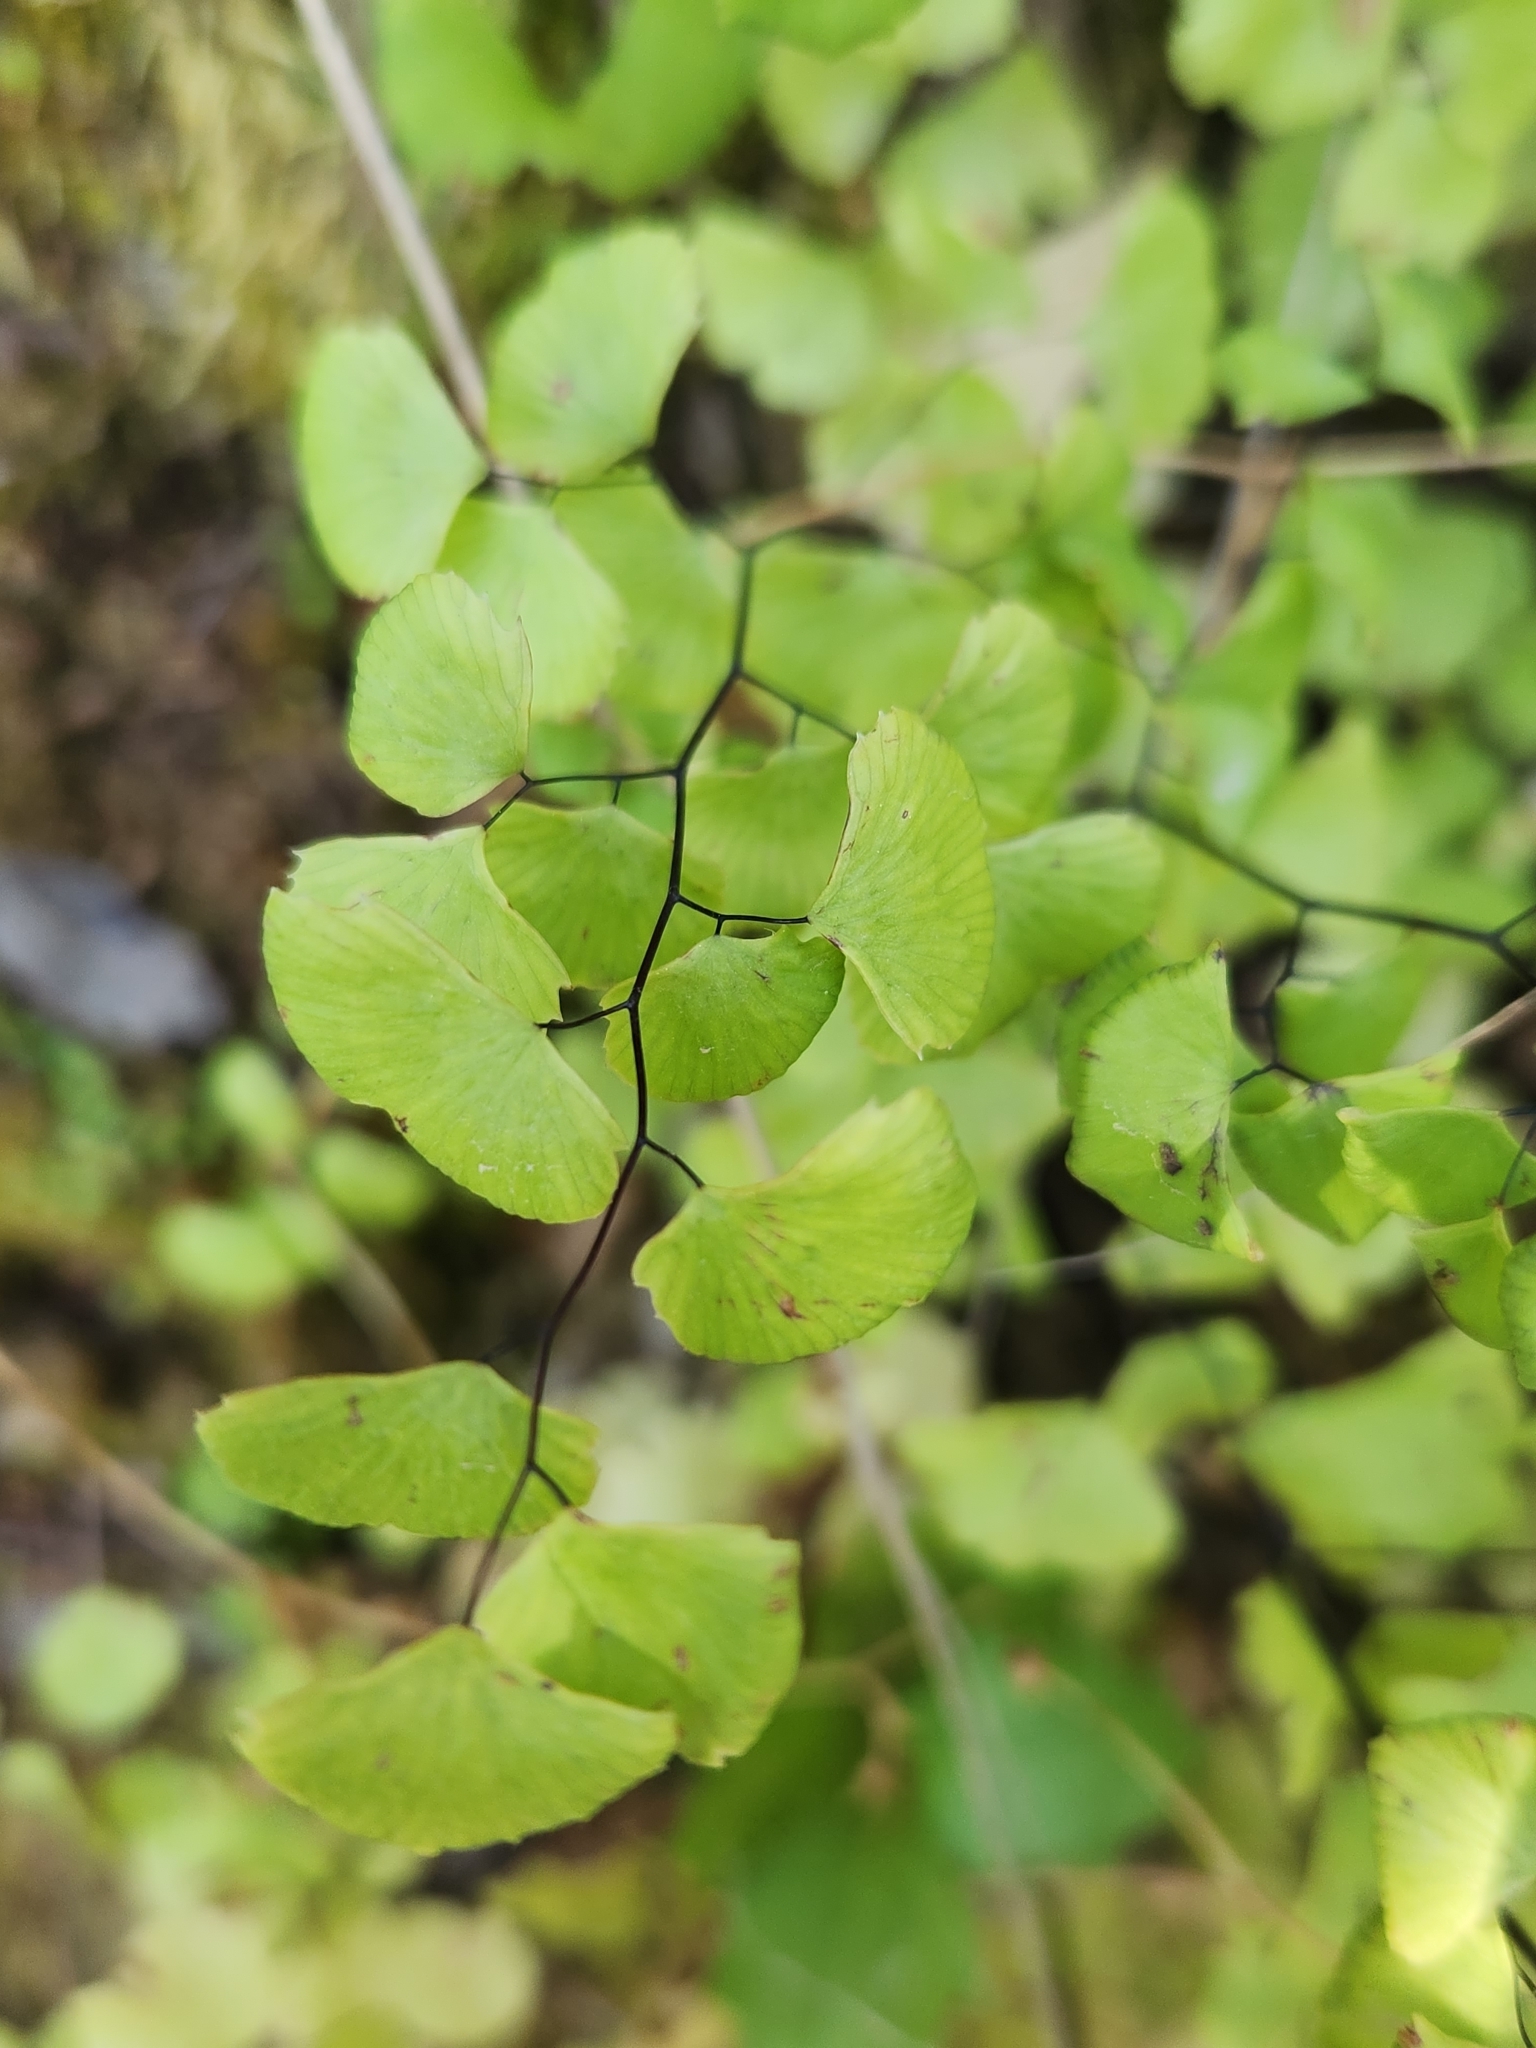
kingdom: Plantae
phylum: Tracheophyta
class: Polypodiopsida
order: Polypodiales
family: Pteridaceae
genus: Adiantum
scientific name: Adiantum jordanii
